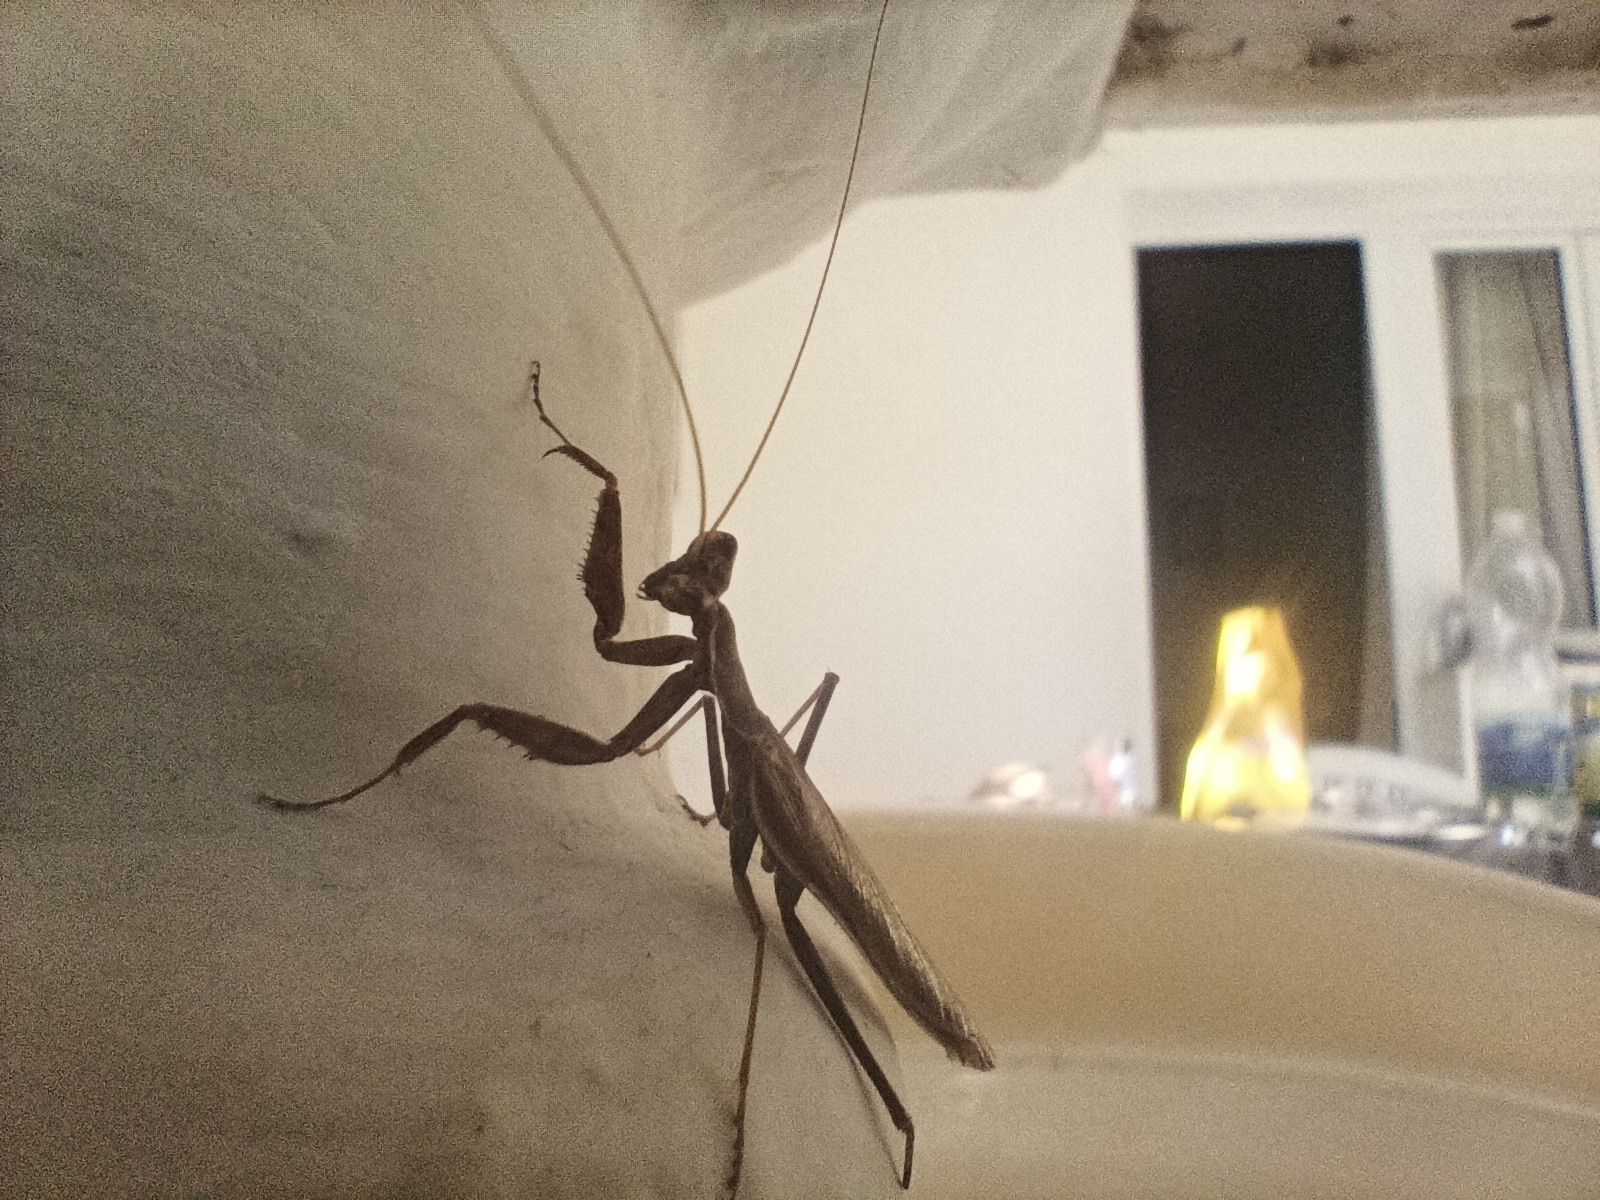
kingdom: Animalia
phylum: Arthropoda
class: Insecta
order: Mantodea
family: Amelidae
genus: Ameles
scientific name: Ameles spallanzania
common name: European dwarf mantis
